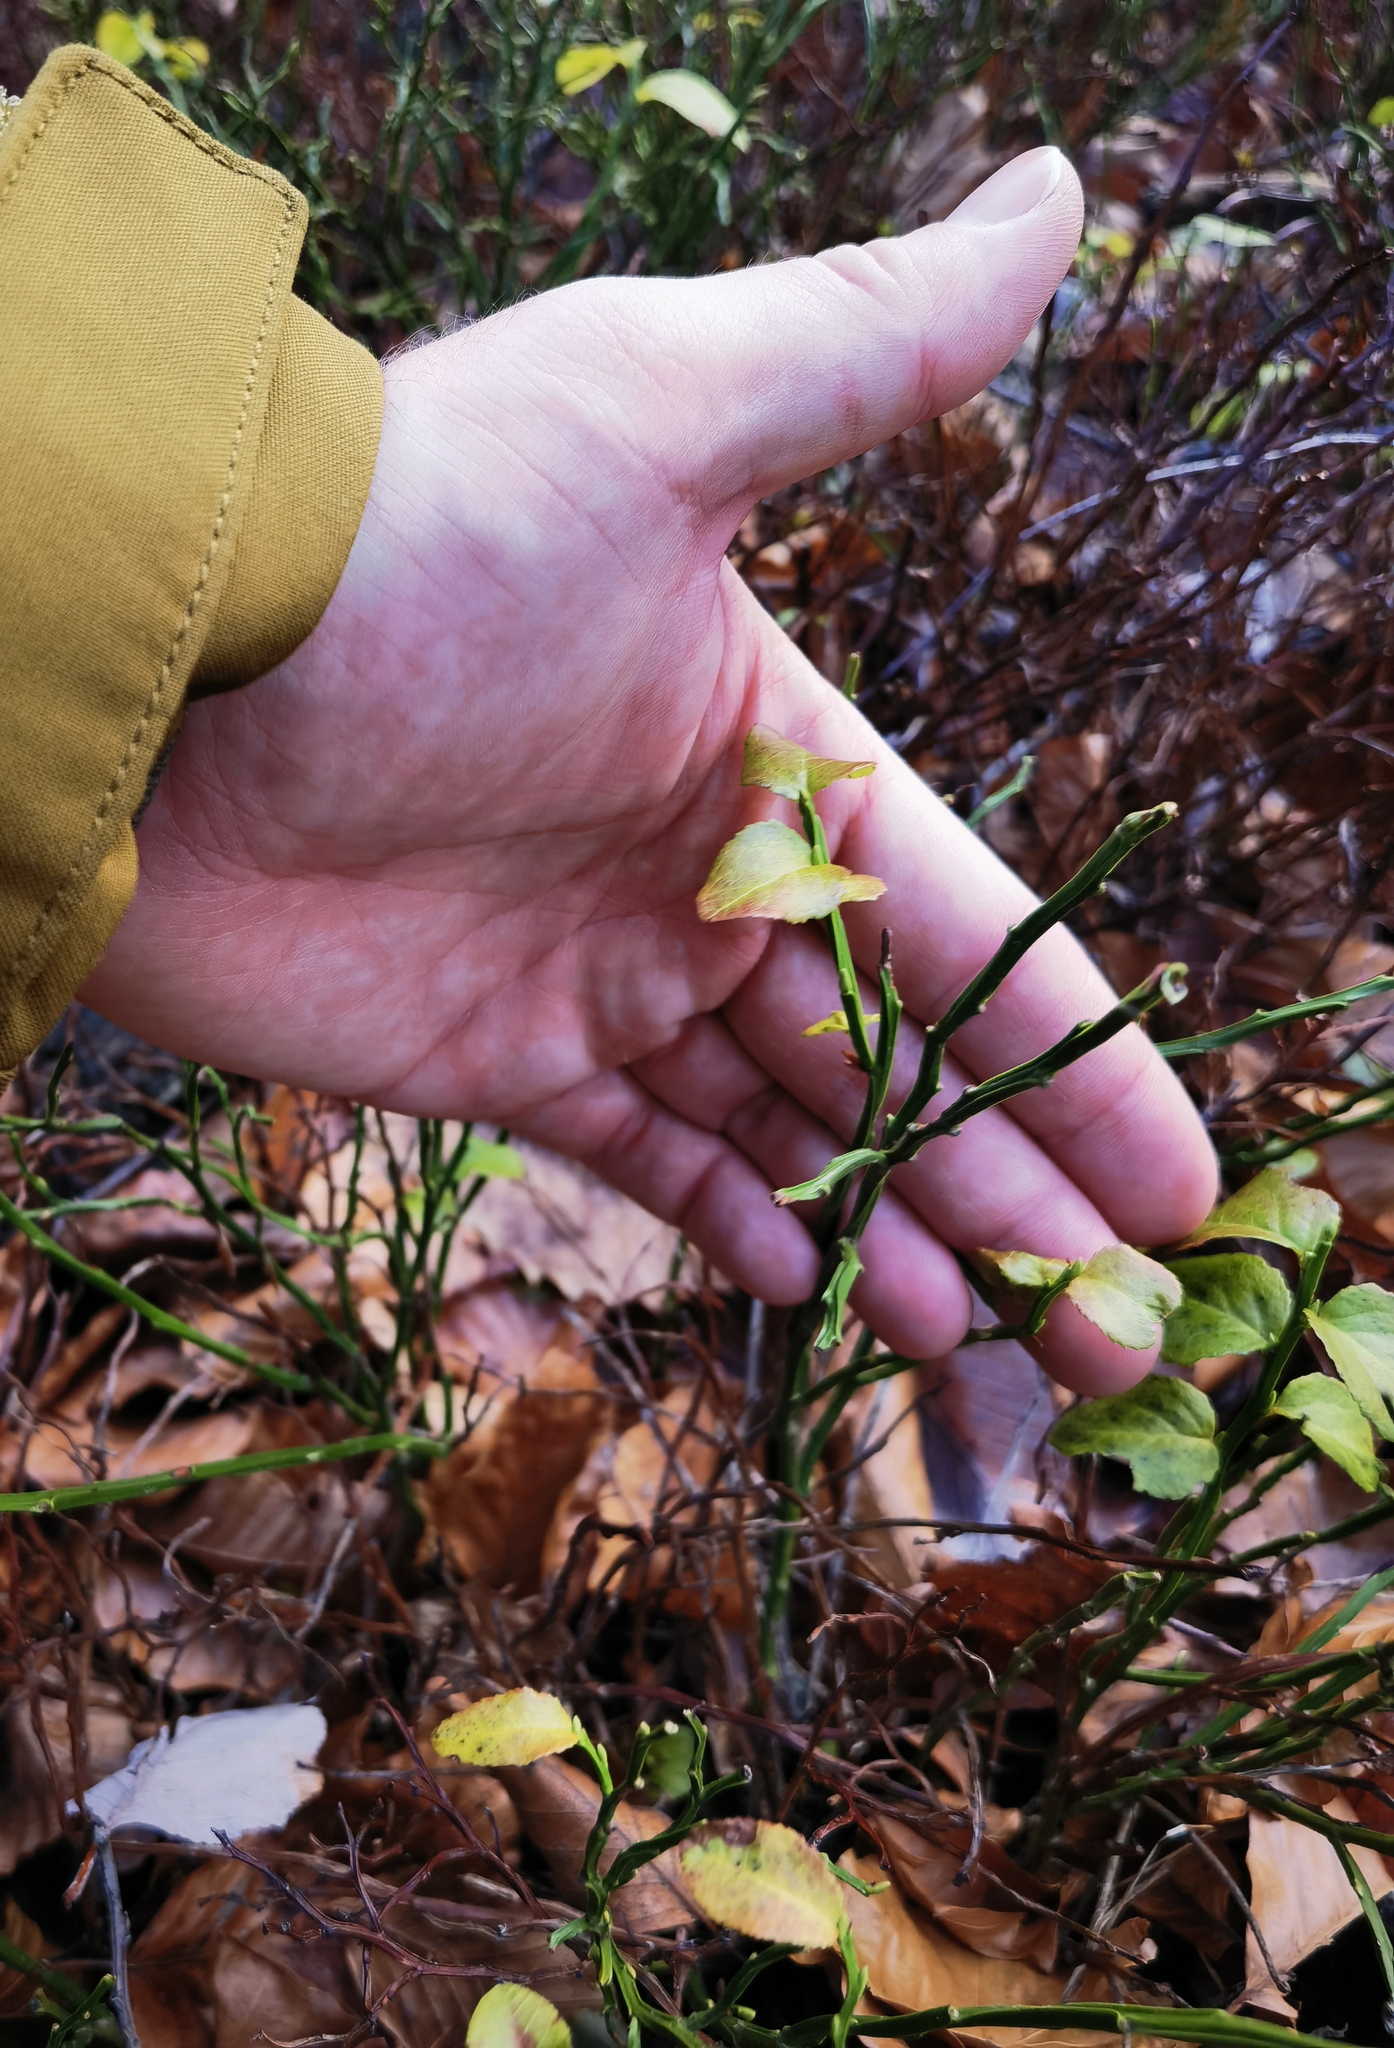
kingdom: Plantae
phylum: Tracheophyta
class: Magnoliopsida
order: Ericales
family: Ericaceae
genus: Vaccinium
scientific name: Vaccinium myrtillus
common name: Bilberry
